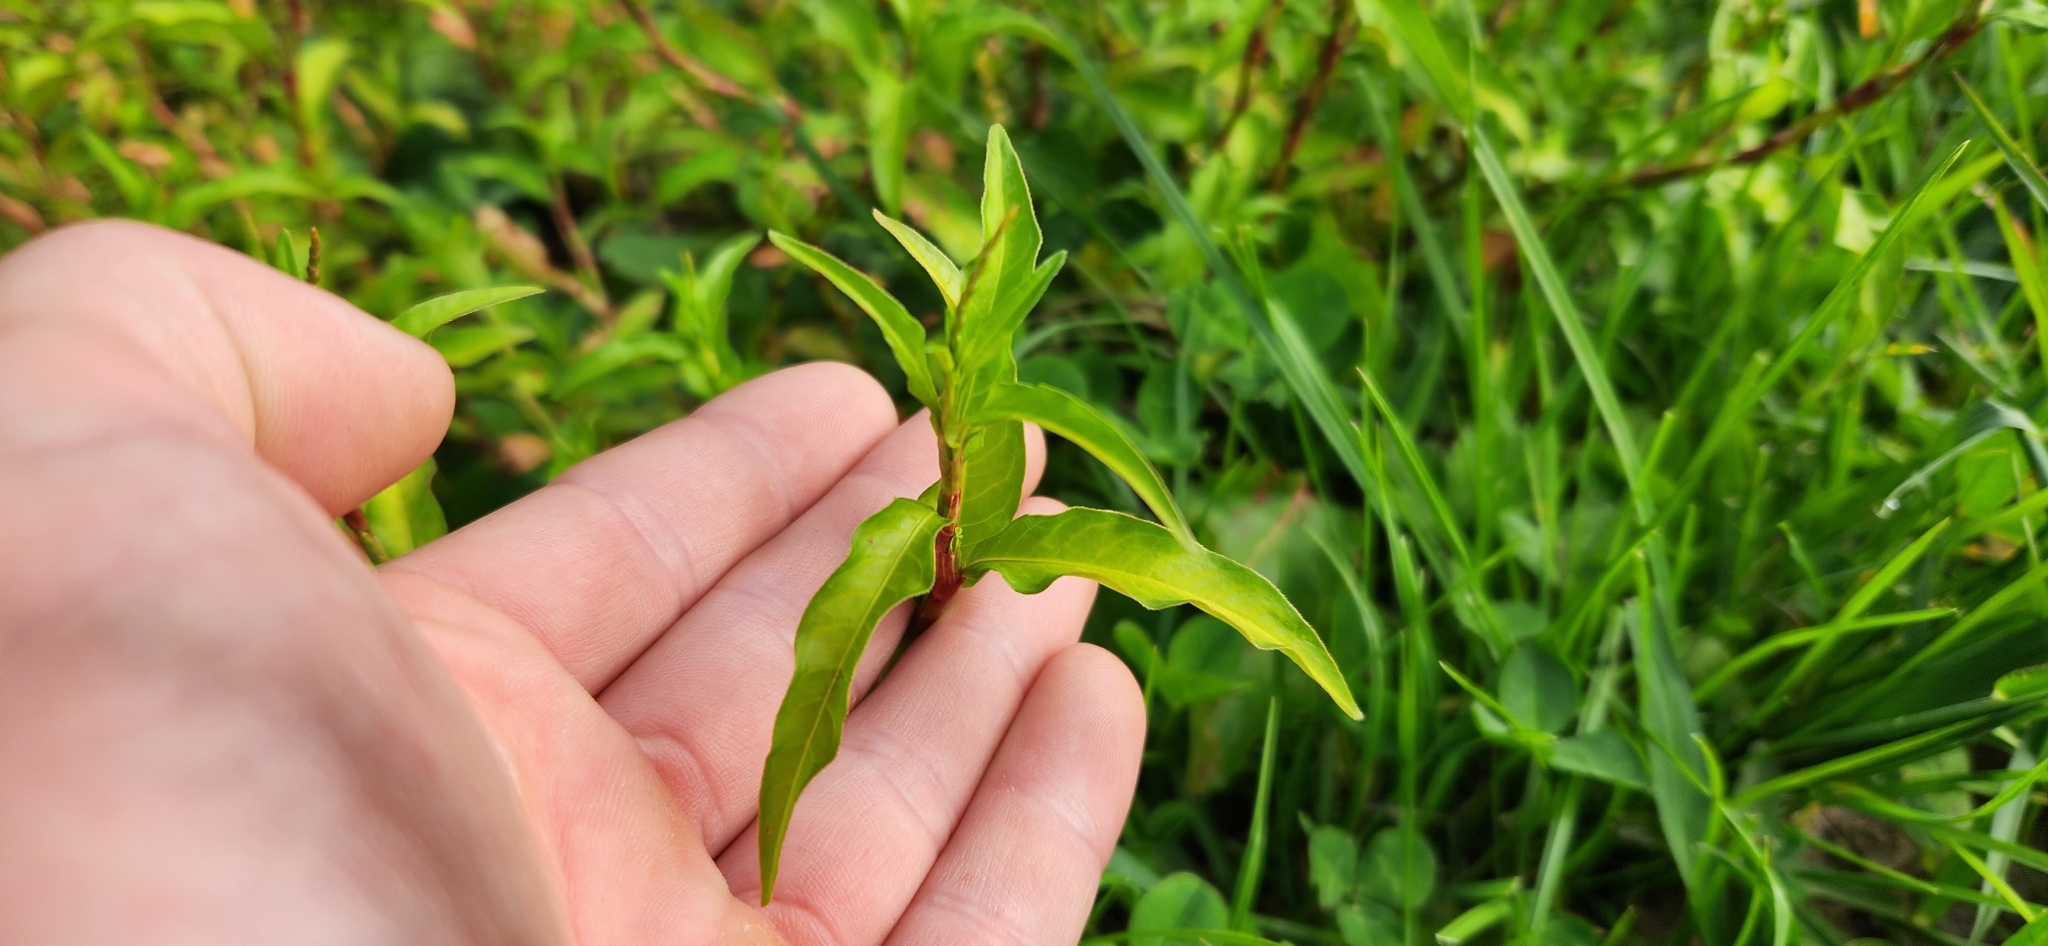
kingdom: Plantae
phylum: Tracheophyta
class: Magnoliopsida
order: Caryophyllales
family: Polygonaceae
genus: Persicaria
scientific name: Persicaria hydropiper
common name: Water-pepper
